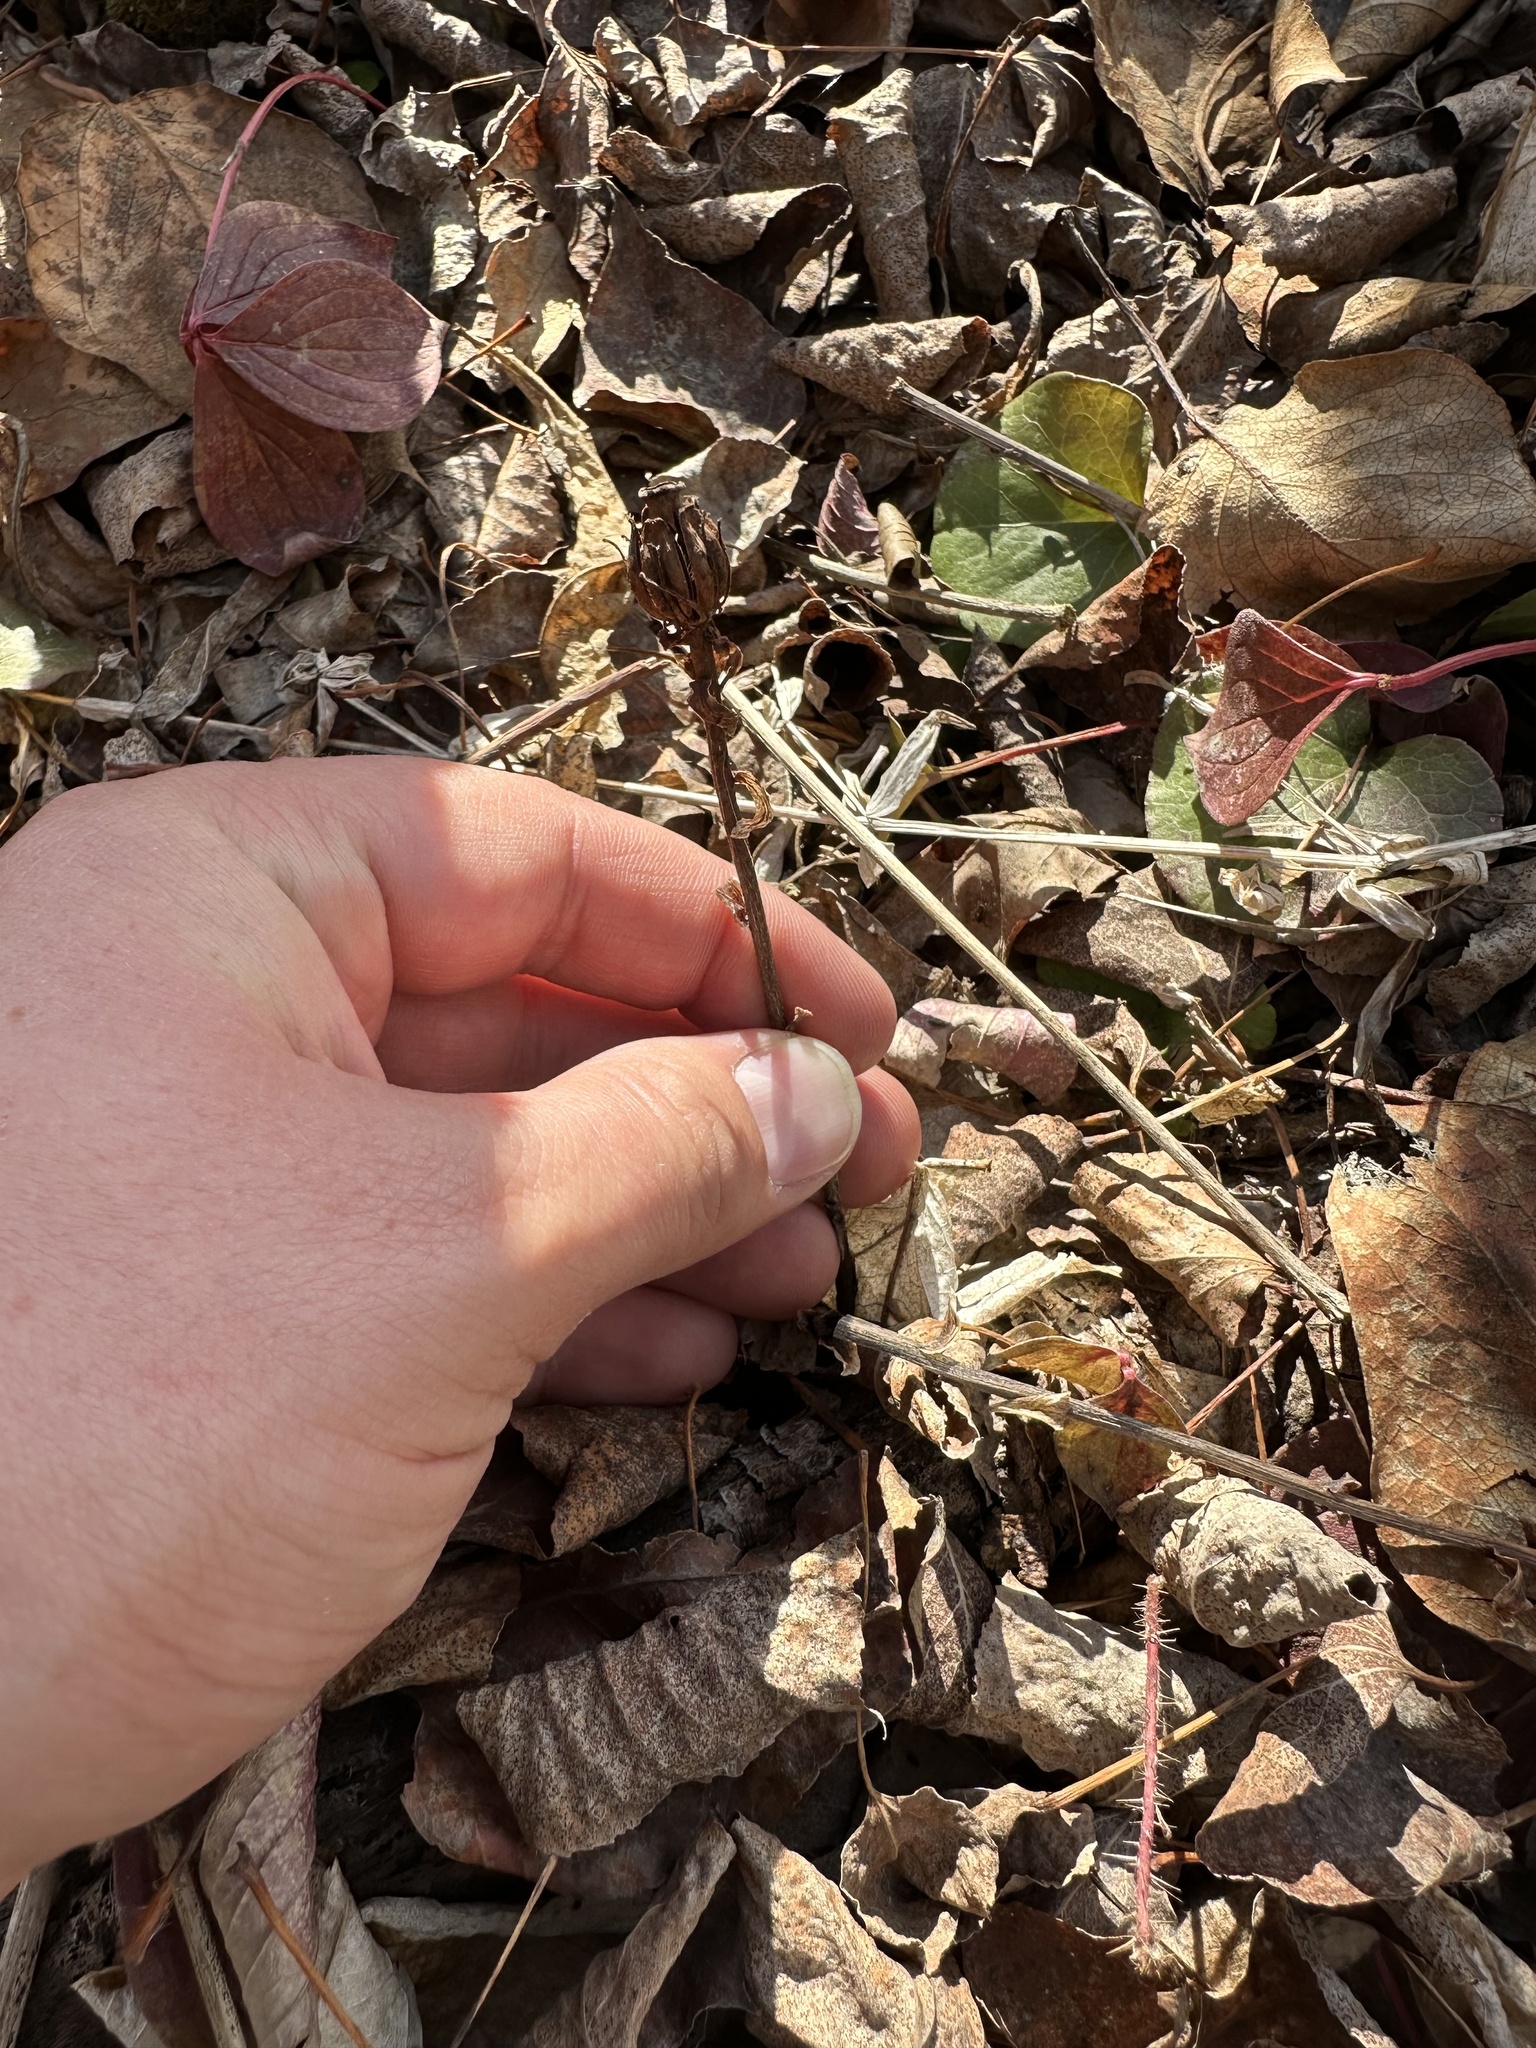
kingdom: Plantae
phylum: Tracheophyta
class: Magnoliopsida
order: Ericales
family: Ericaceae
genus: Monotropa
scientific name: Monotropa uniflora
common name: Convulsion root
